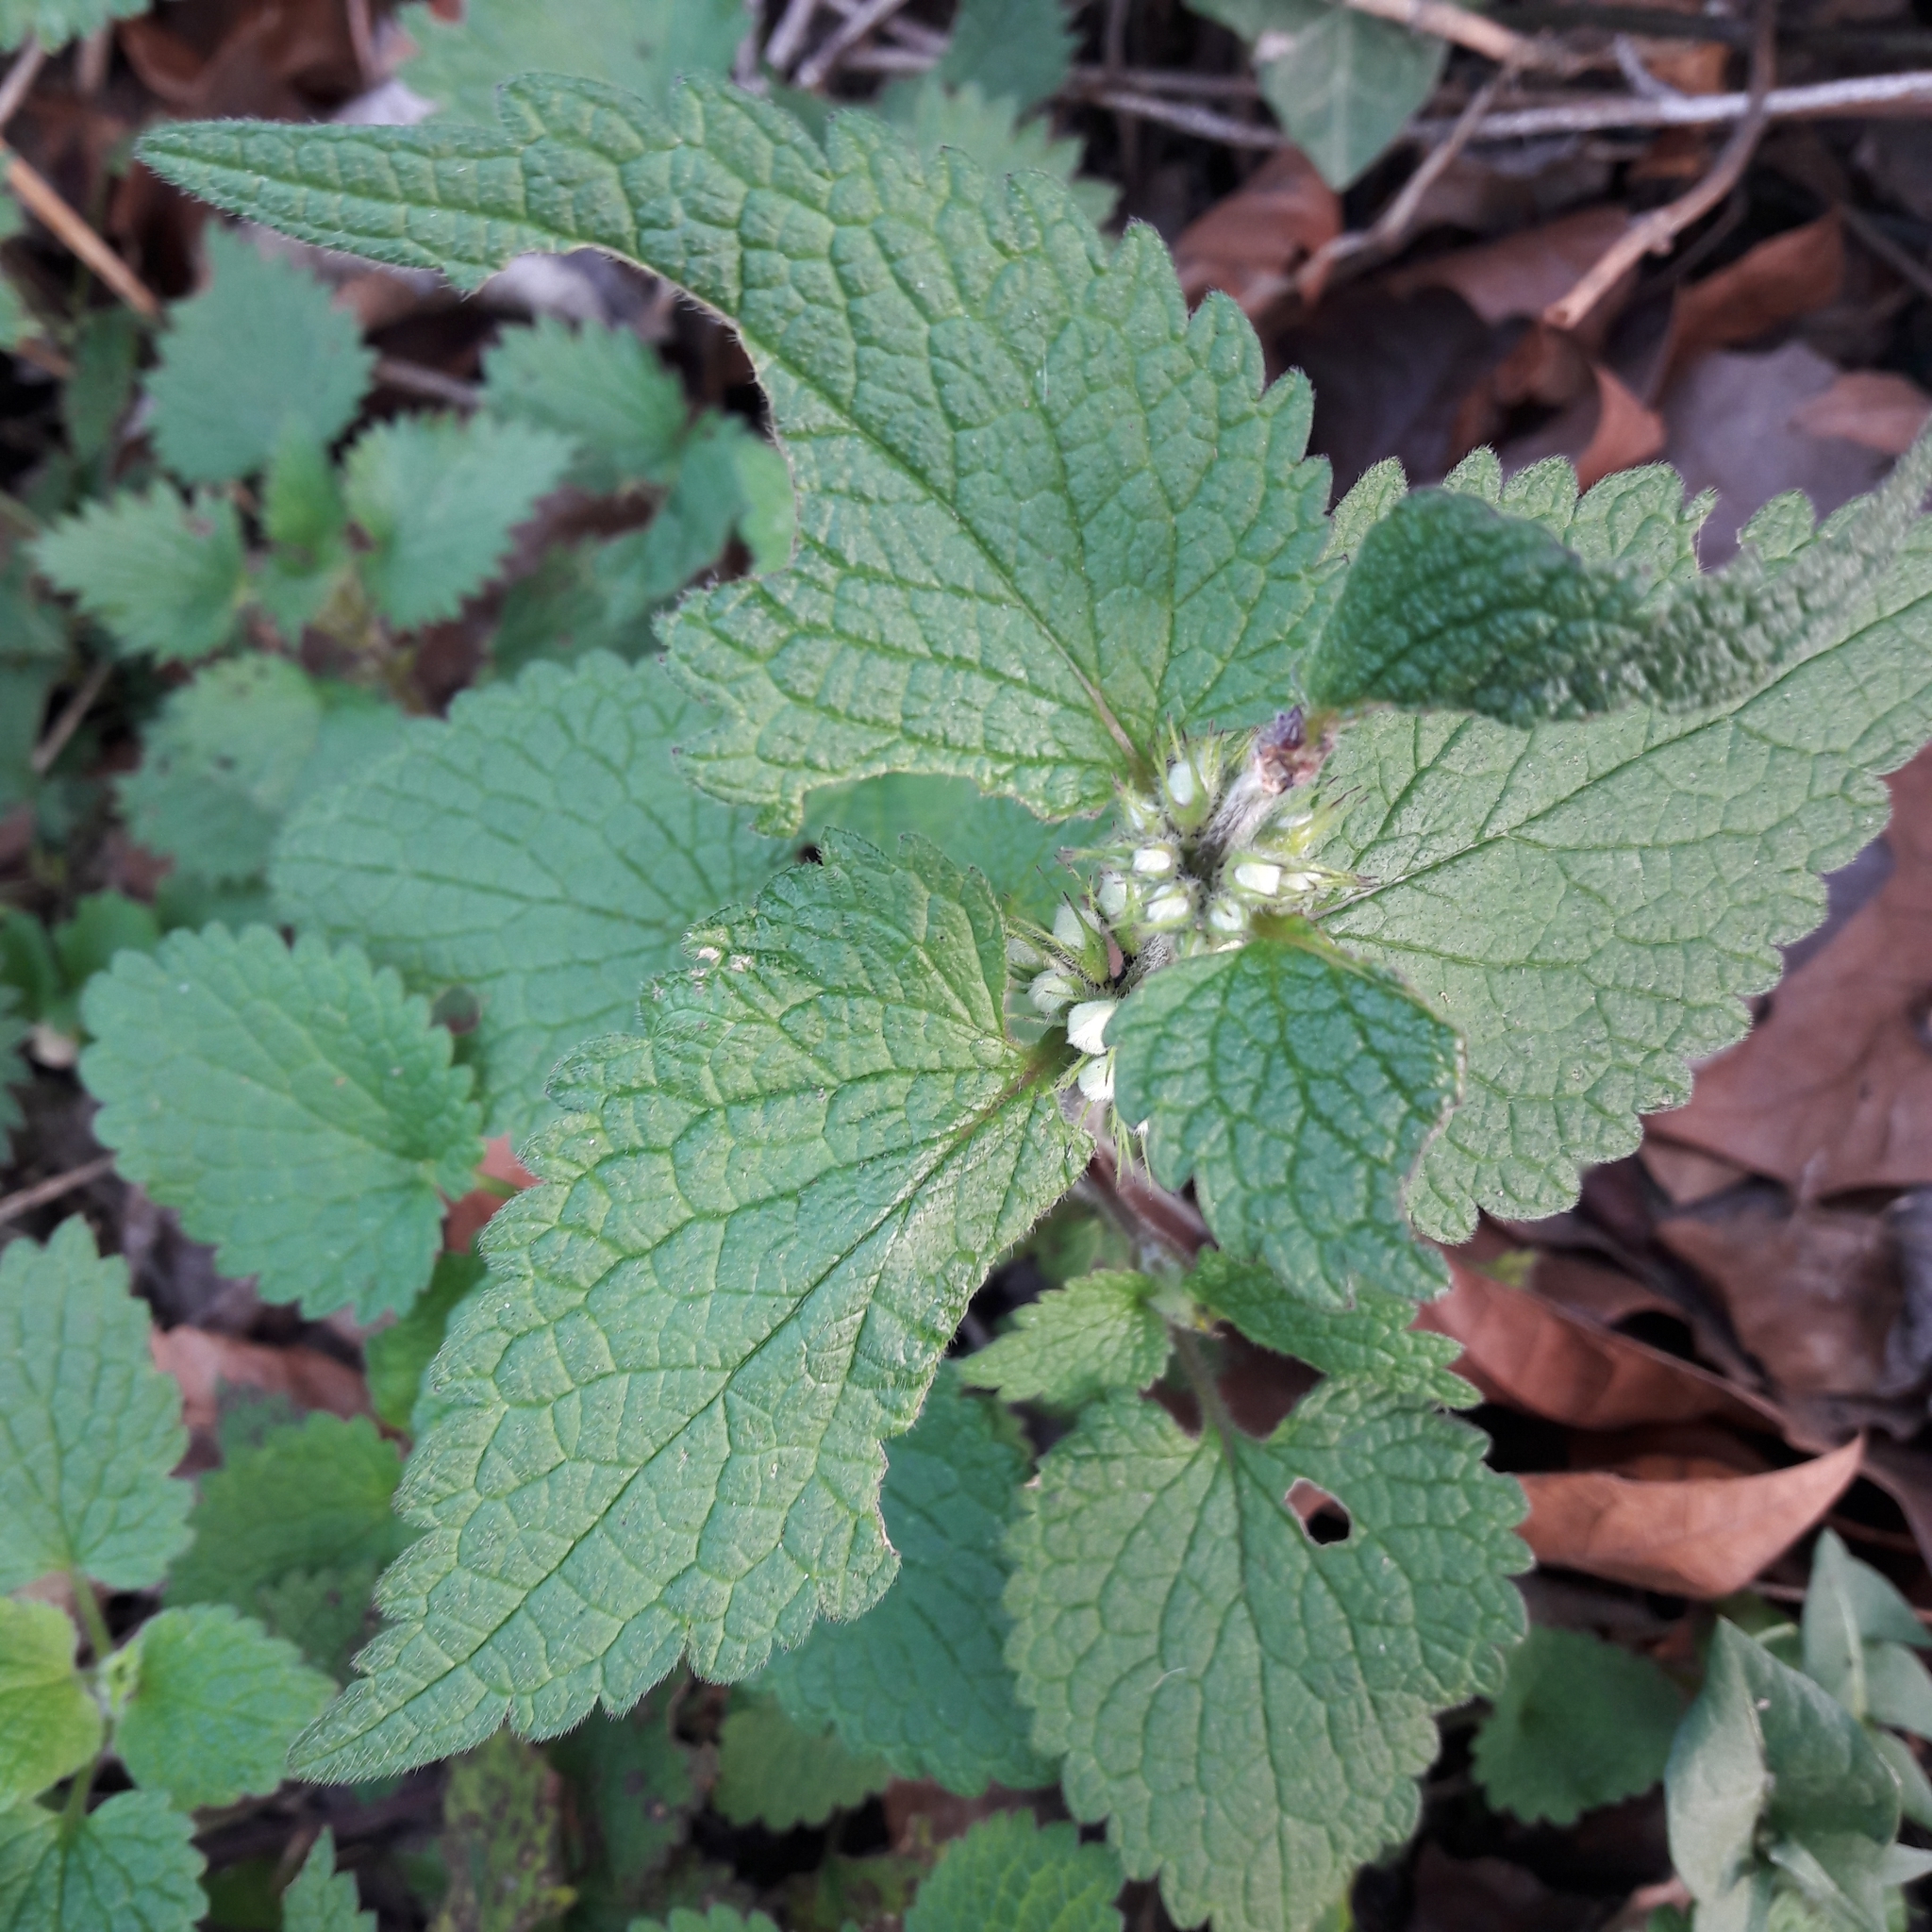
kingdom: Plantae
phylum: Tracheophyta
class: Magnoliopsida
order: Lamiales
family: Lamiaceae
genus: Lamium
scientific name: Lamium album
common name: White dead-nettle
